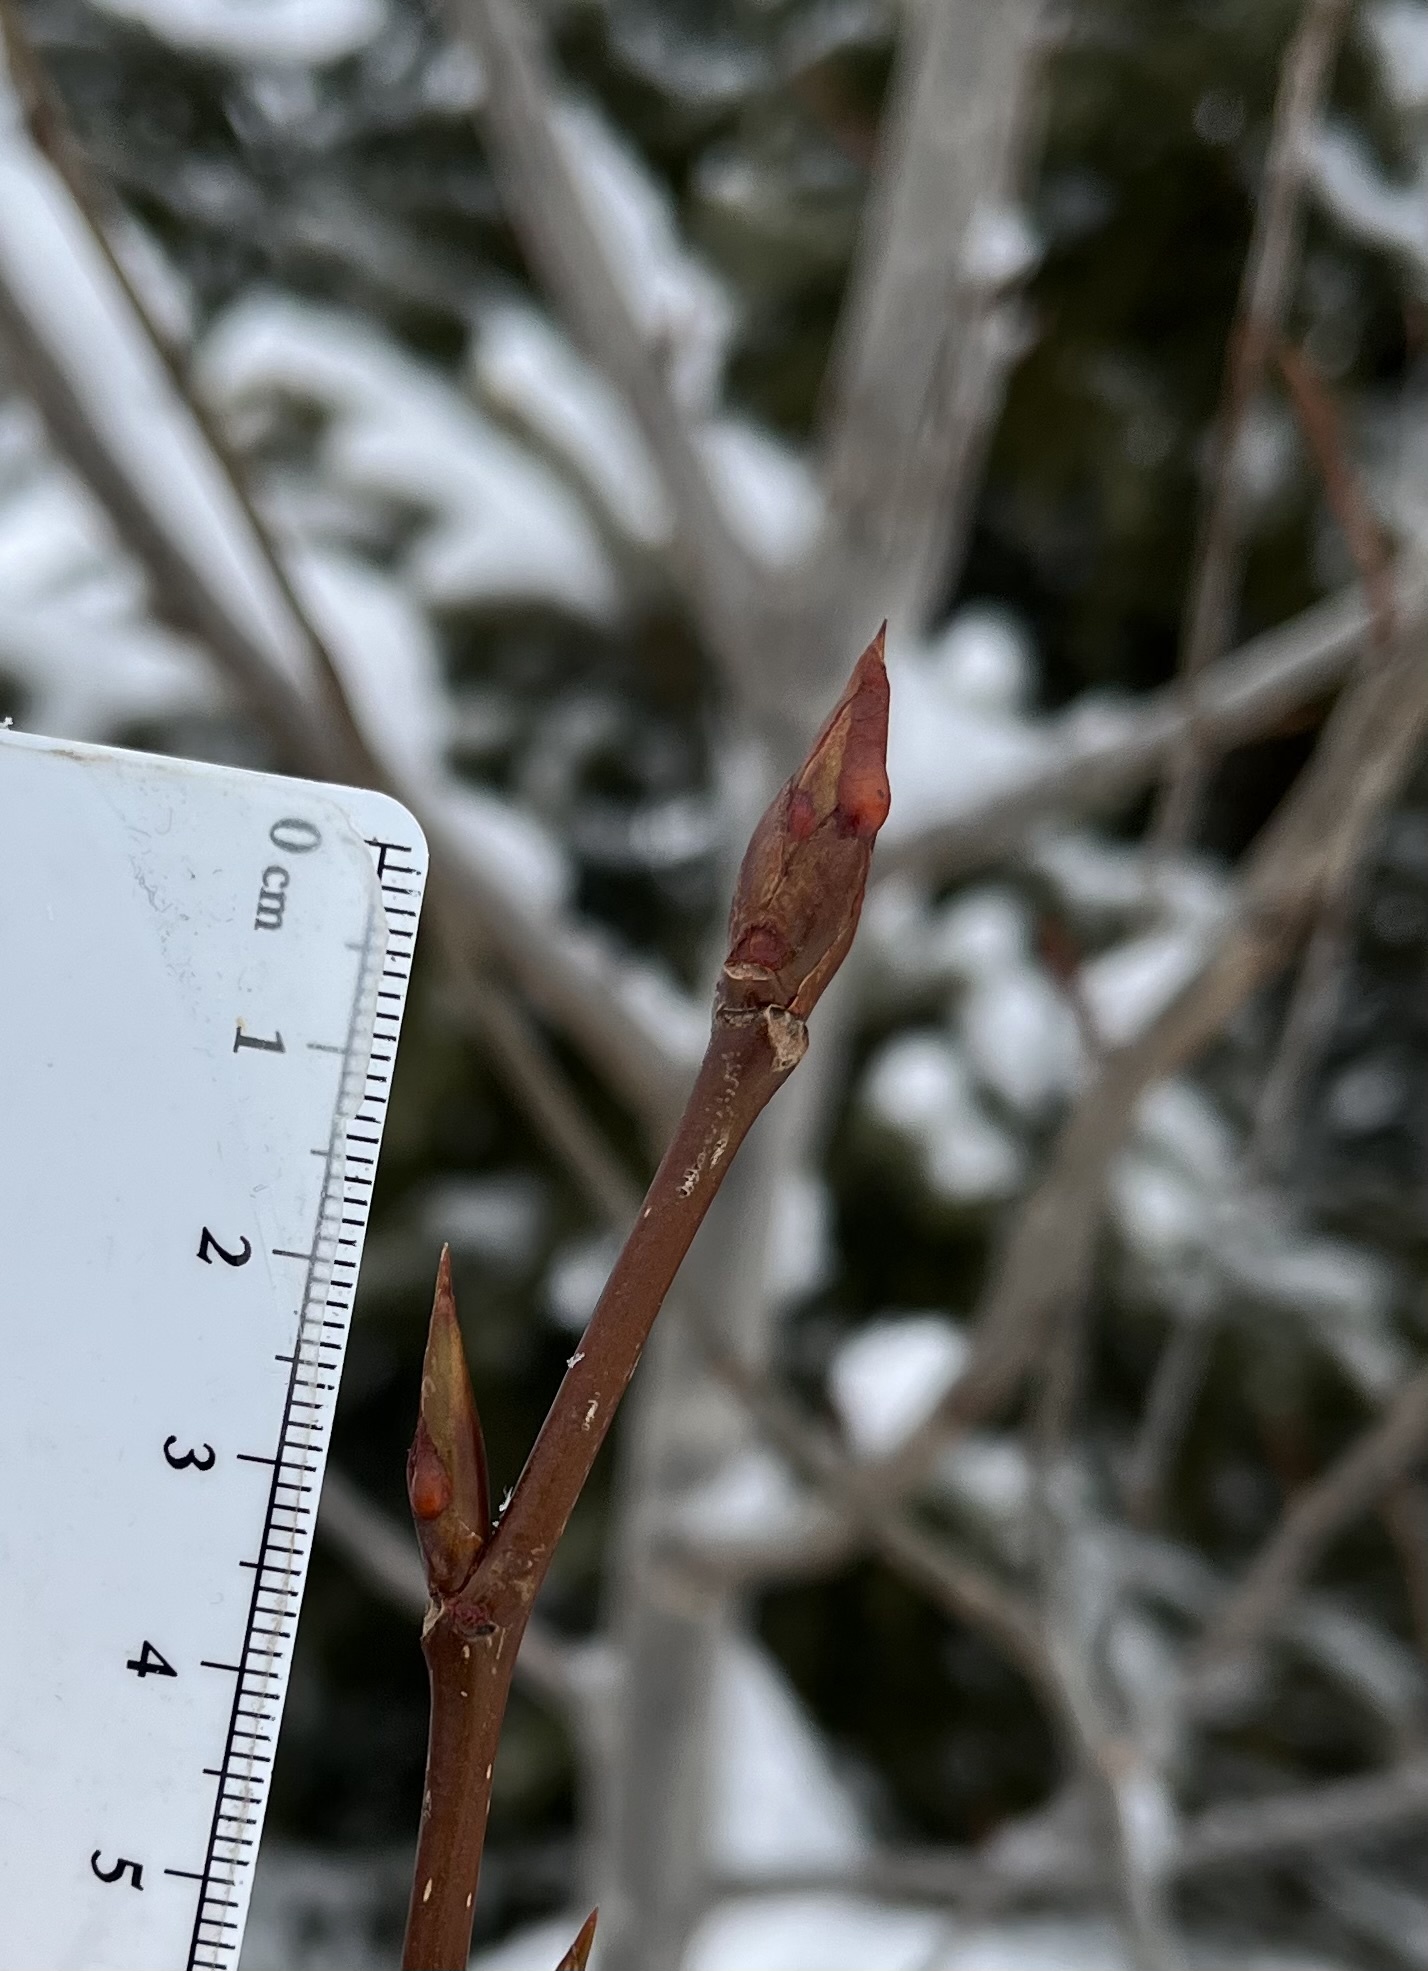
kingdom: Plantae
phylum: Tracheophyta
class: Magnoliopsida
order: Malpighiales
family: Salicaceae
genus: Populus
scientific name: Populus balsamifera
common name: Balsam poplar
